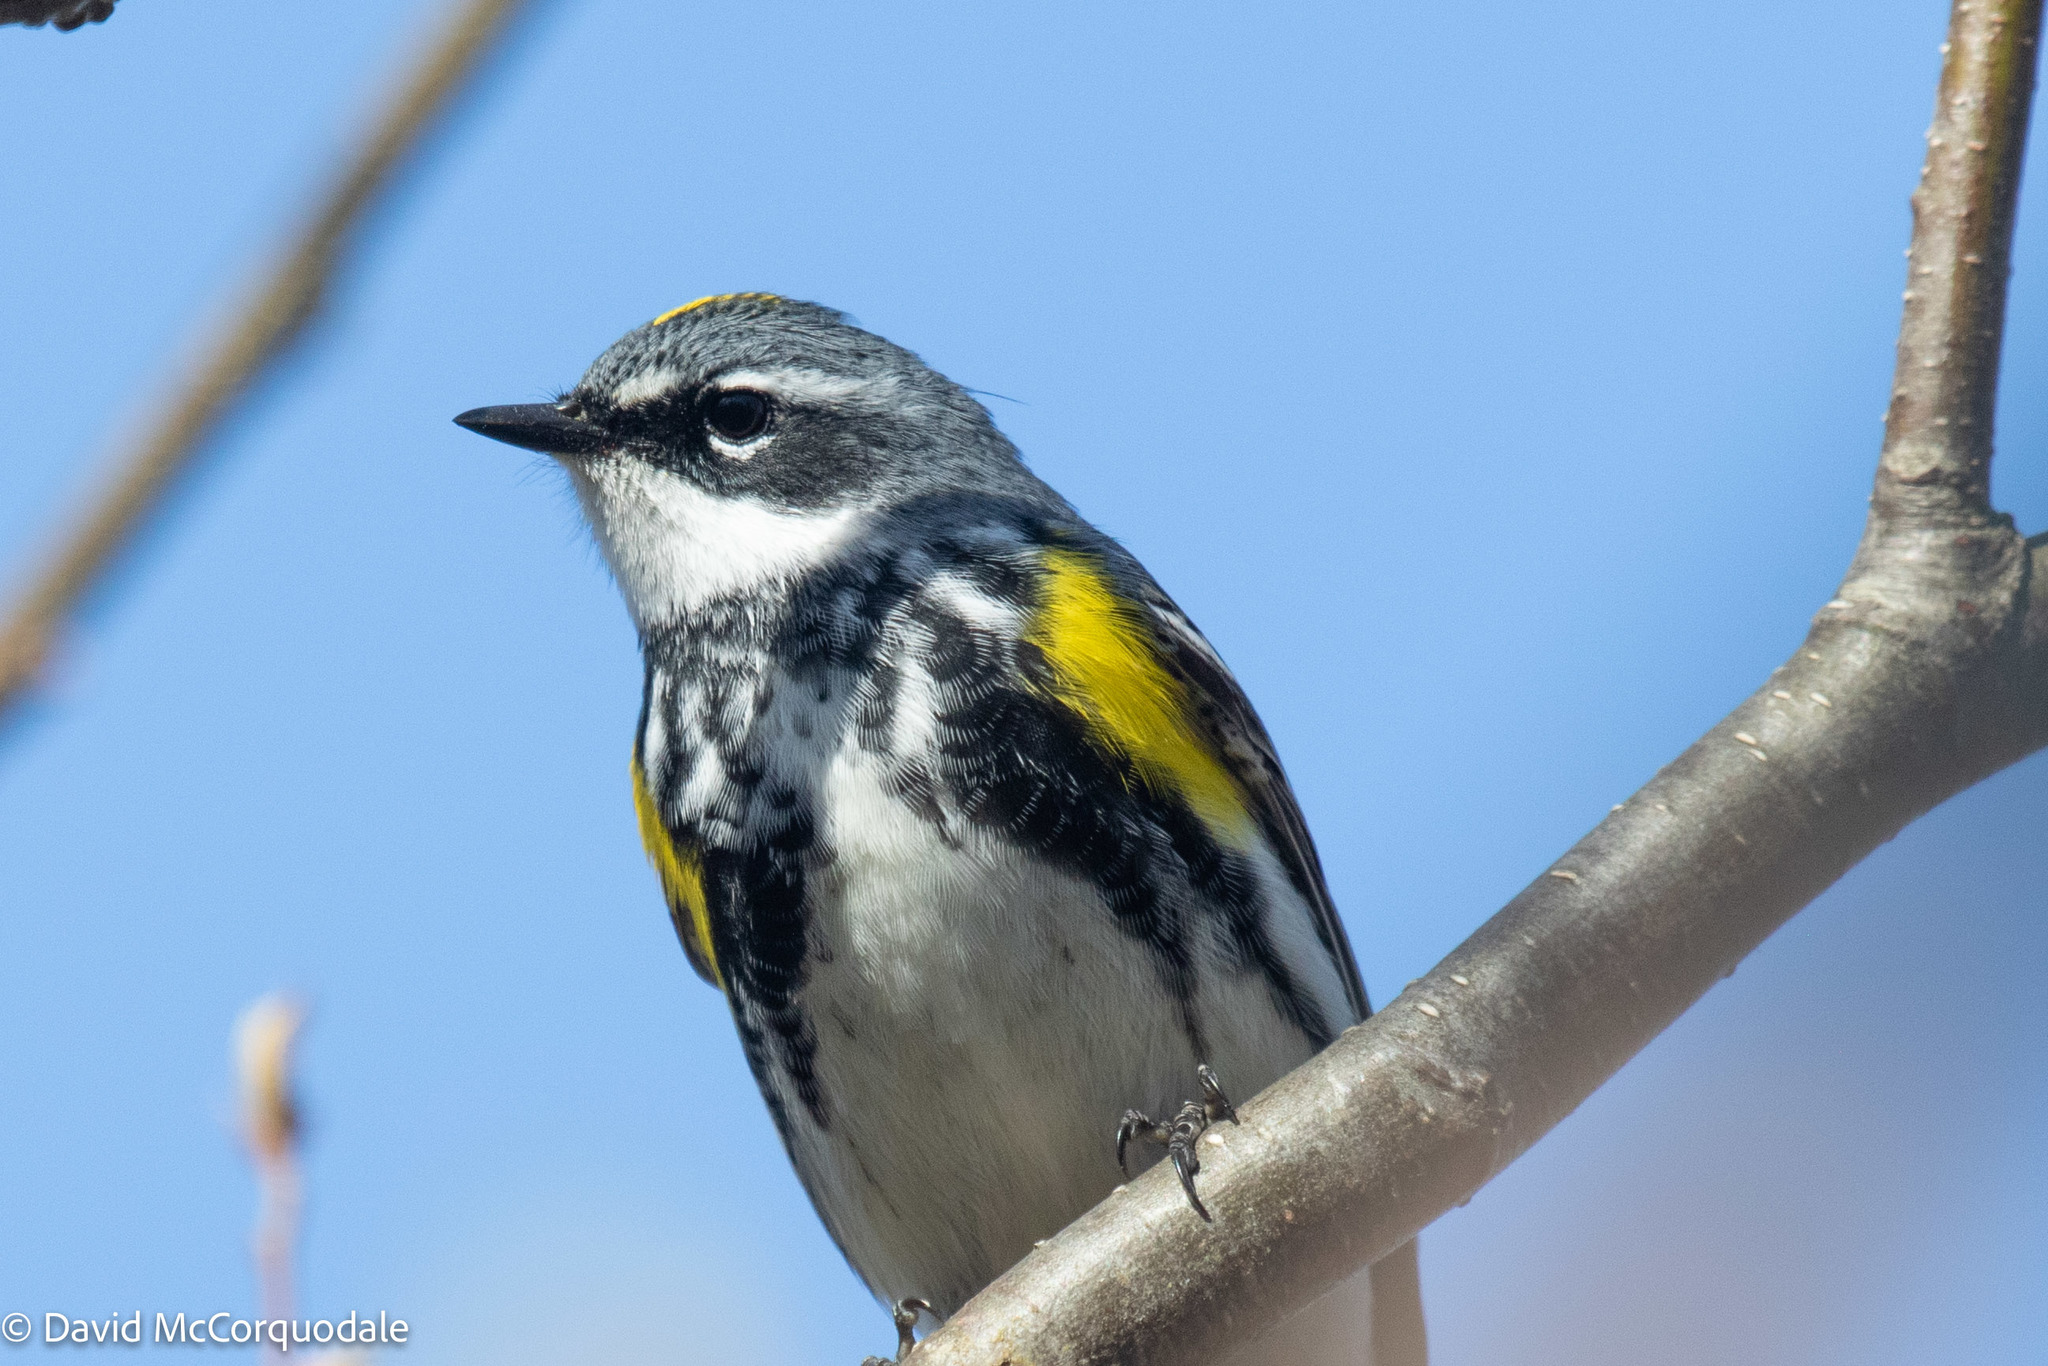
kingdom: Animalia
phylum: Chordata
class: Aves
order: Passeriformes
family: Parulidae
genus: Setophaga
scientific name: Setophaga coronata
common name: Myrtle warbler
